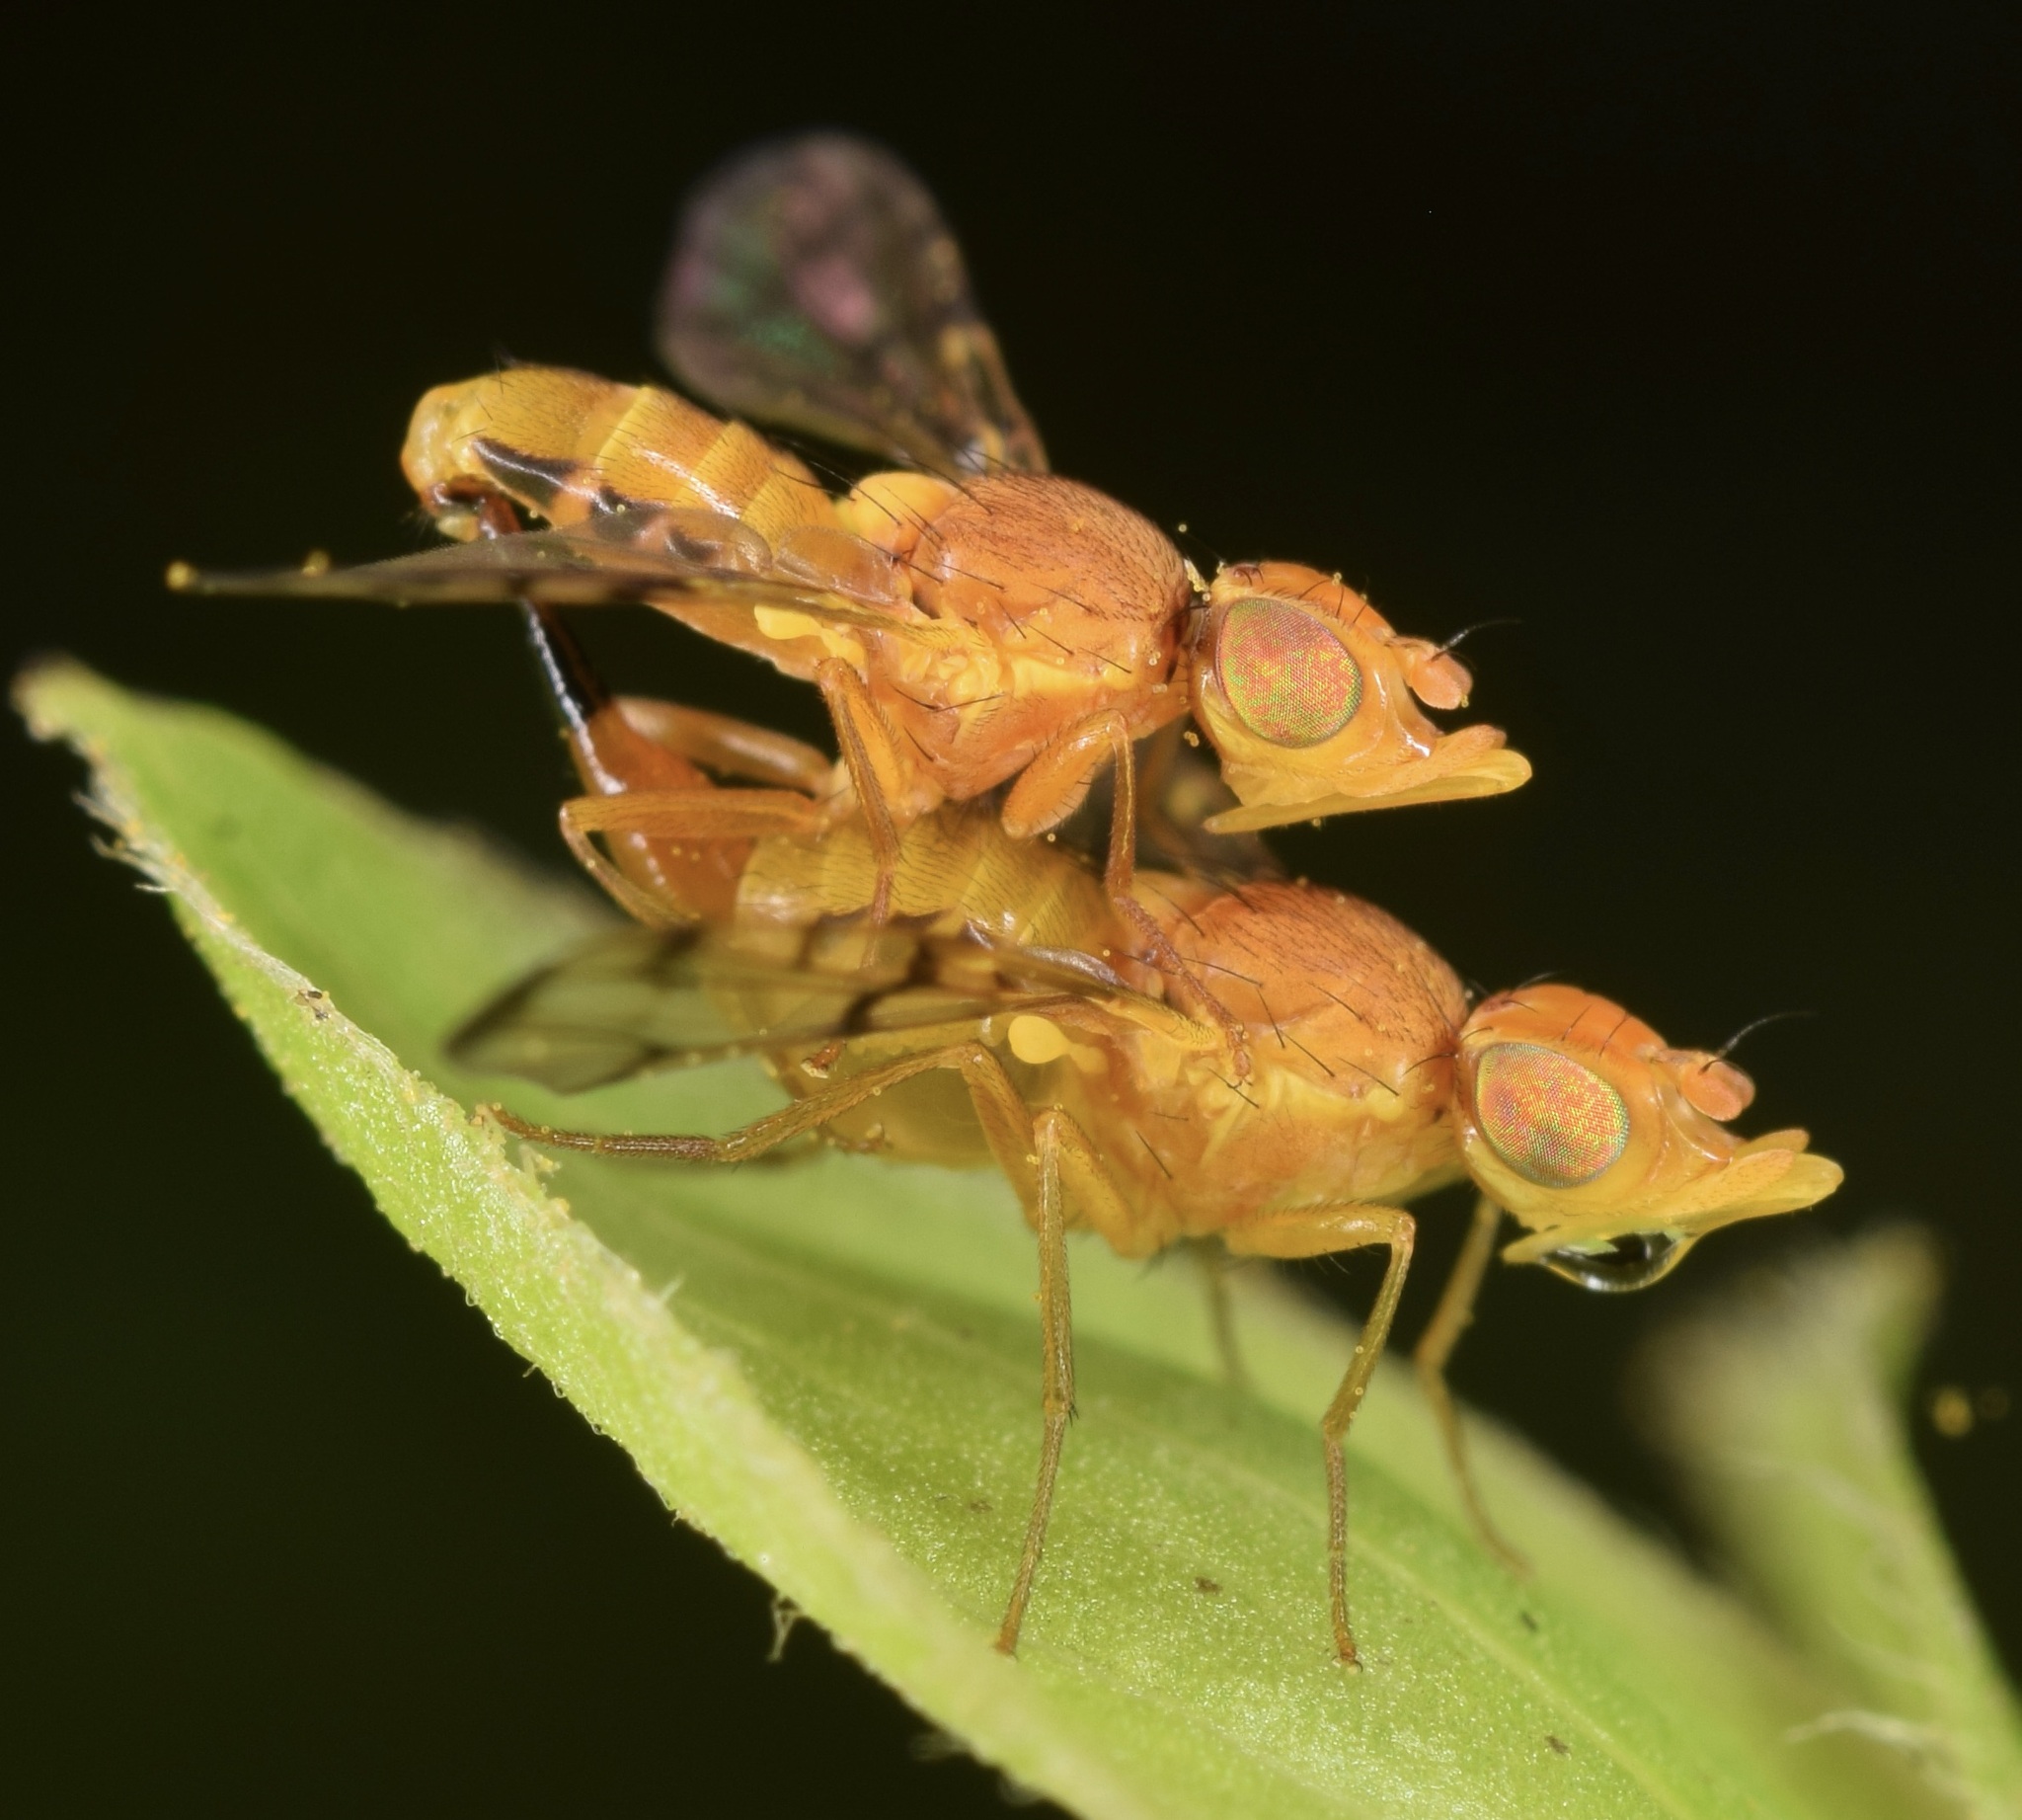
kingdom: Animalia
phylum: Arthropoda
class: Insecta
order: Diptera
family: Tephritidae
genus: Rhynencina
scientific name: Rhynencina longirostris
